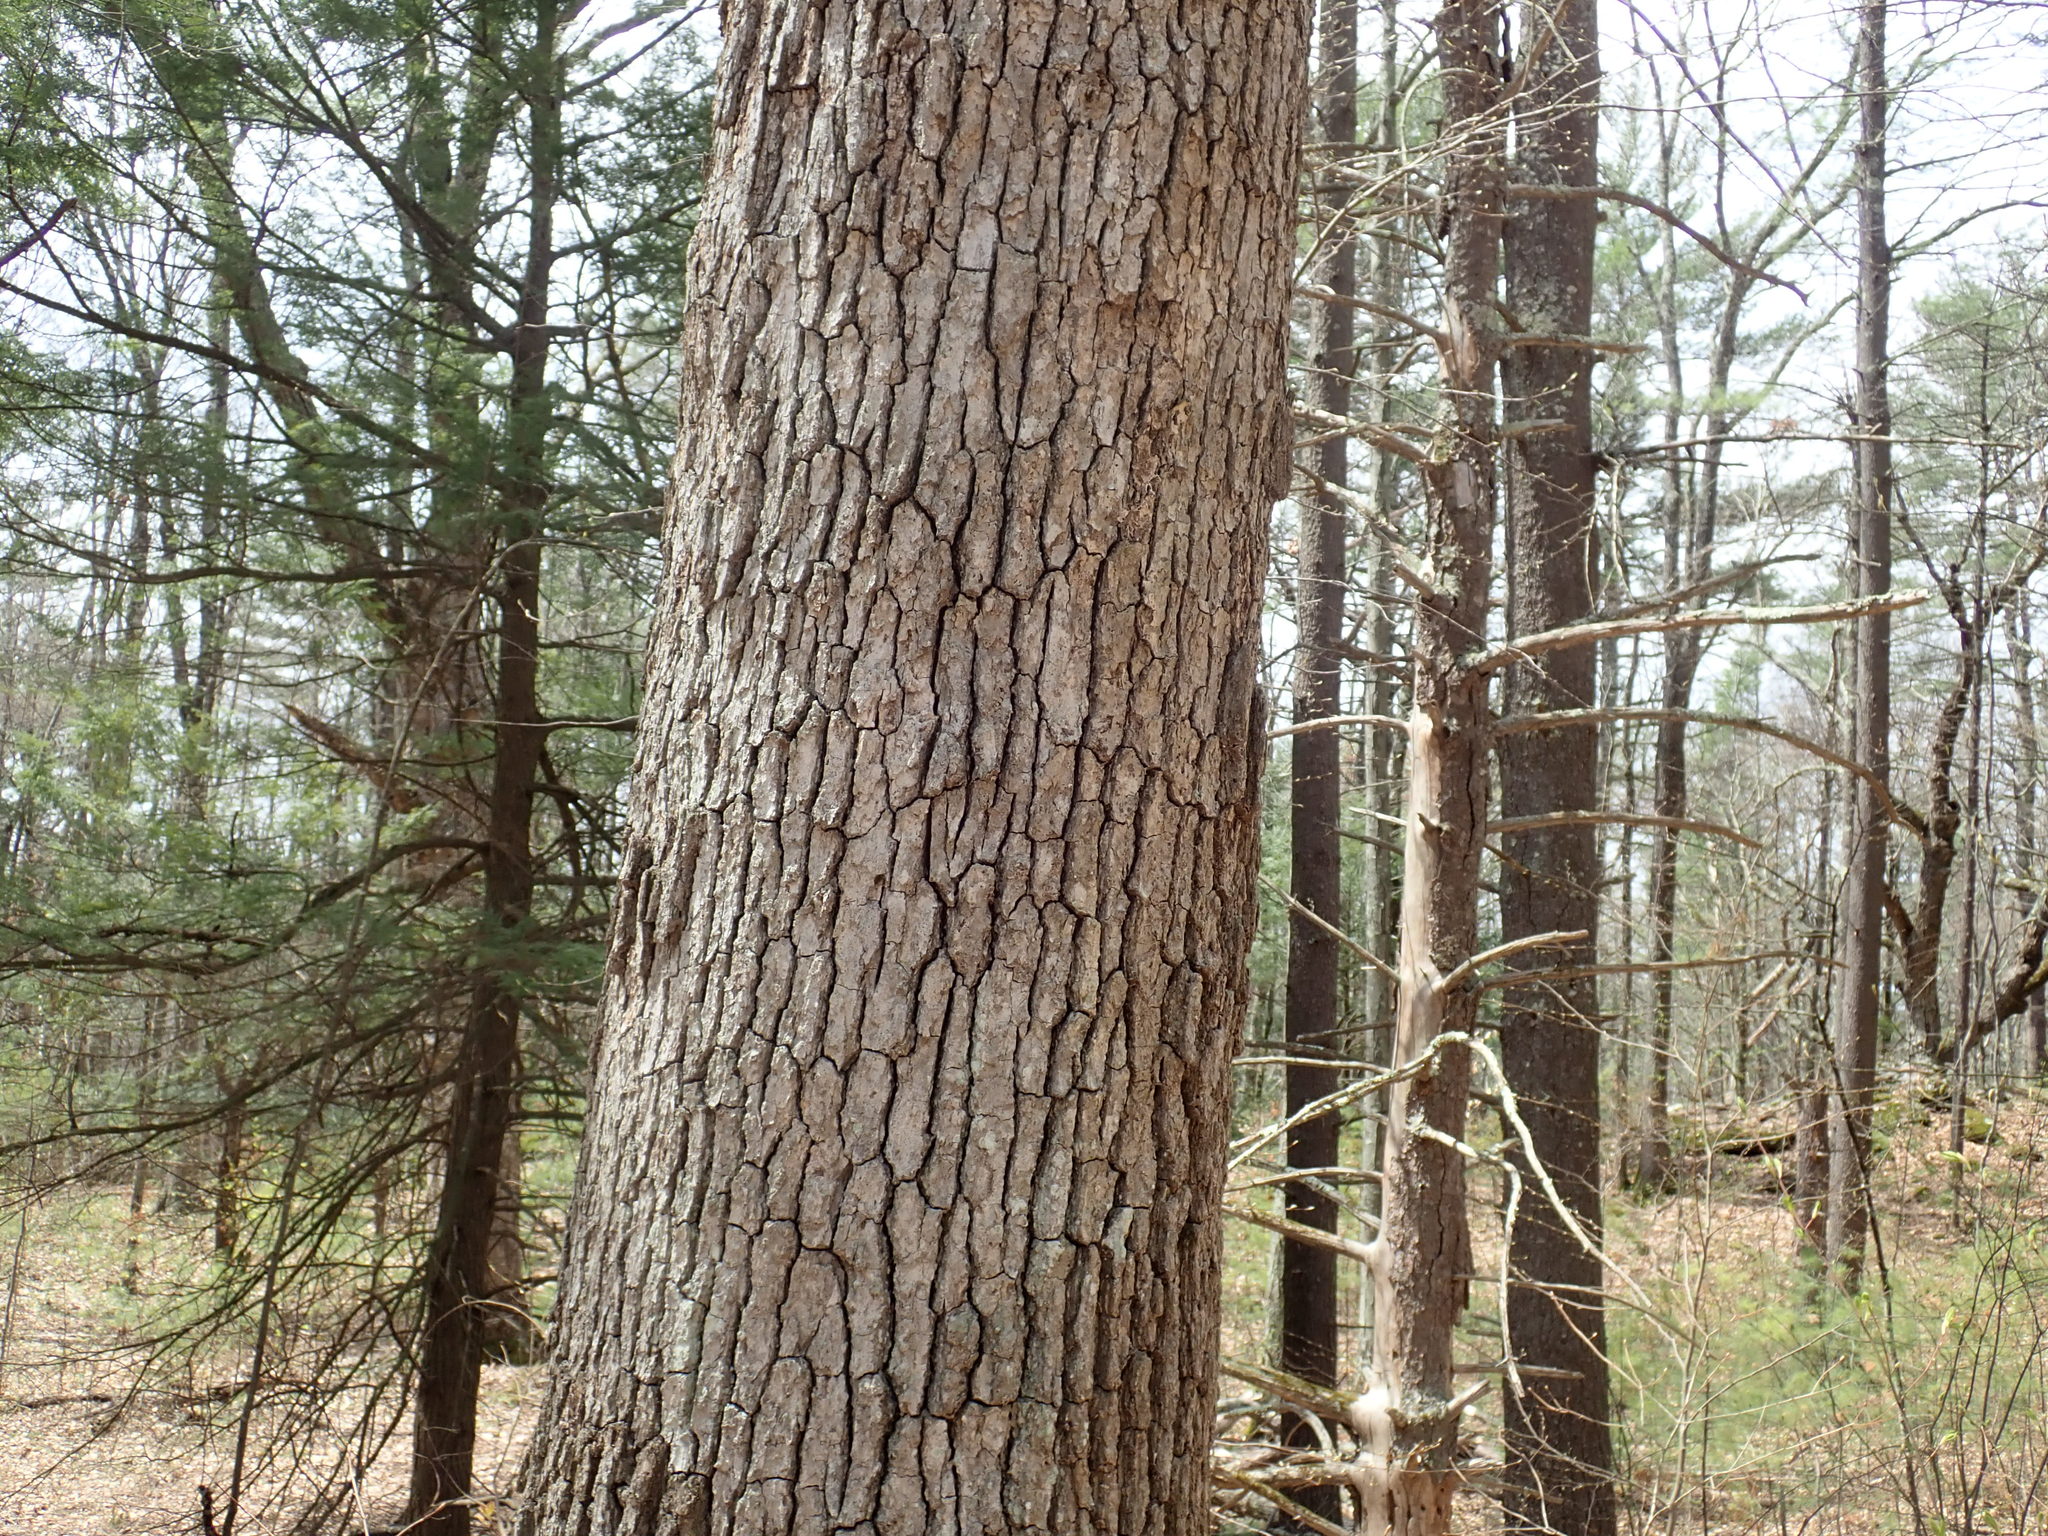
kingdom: Plantae
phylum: Tracheophyta
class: Magnoliopsida
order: Fagales
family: Fagaceae
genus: Quercus
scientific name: Quercus alba
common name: White oak
